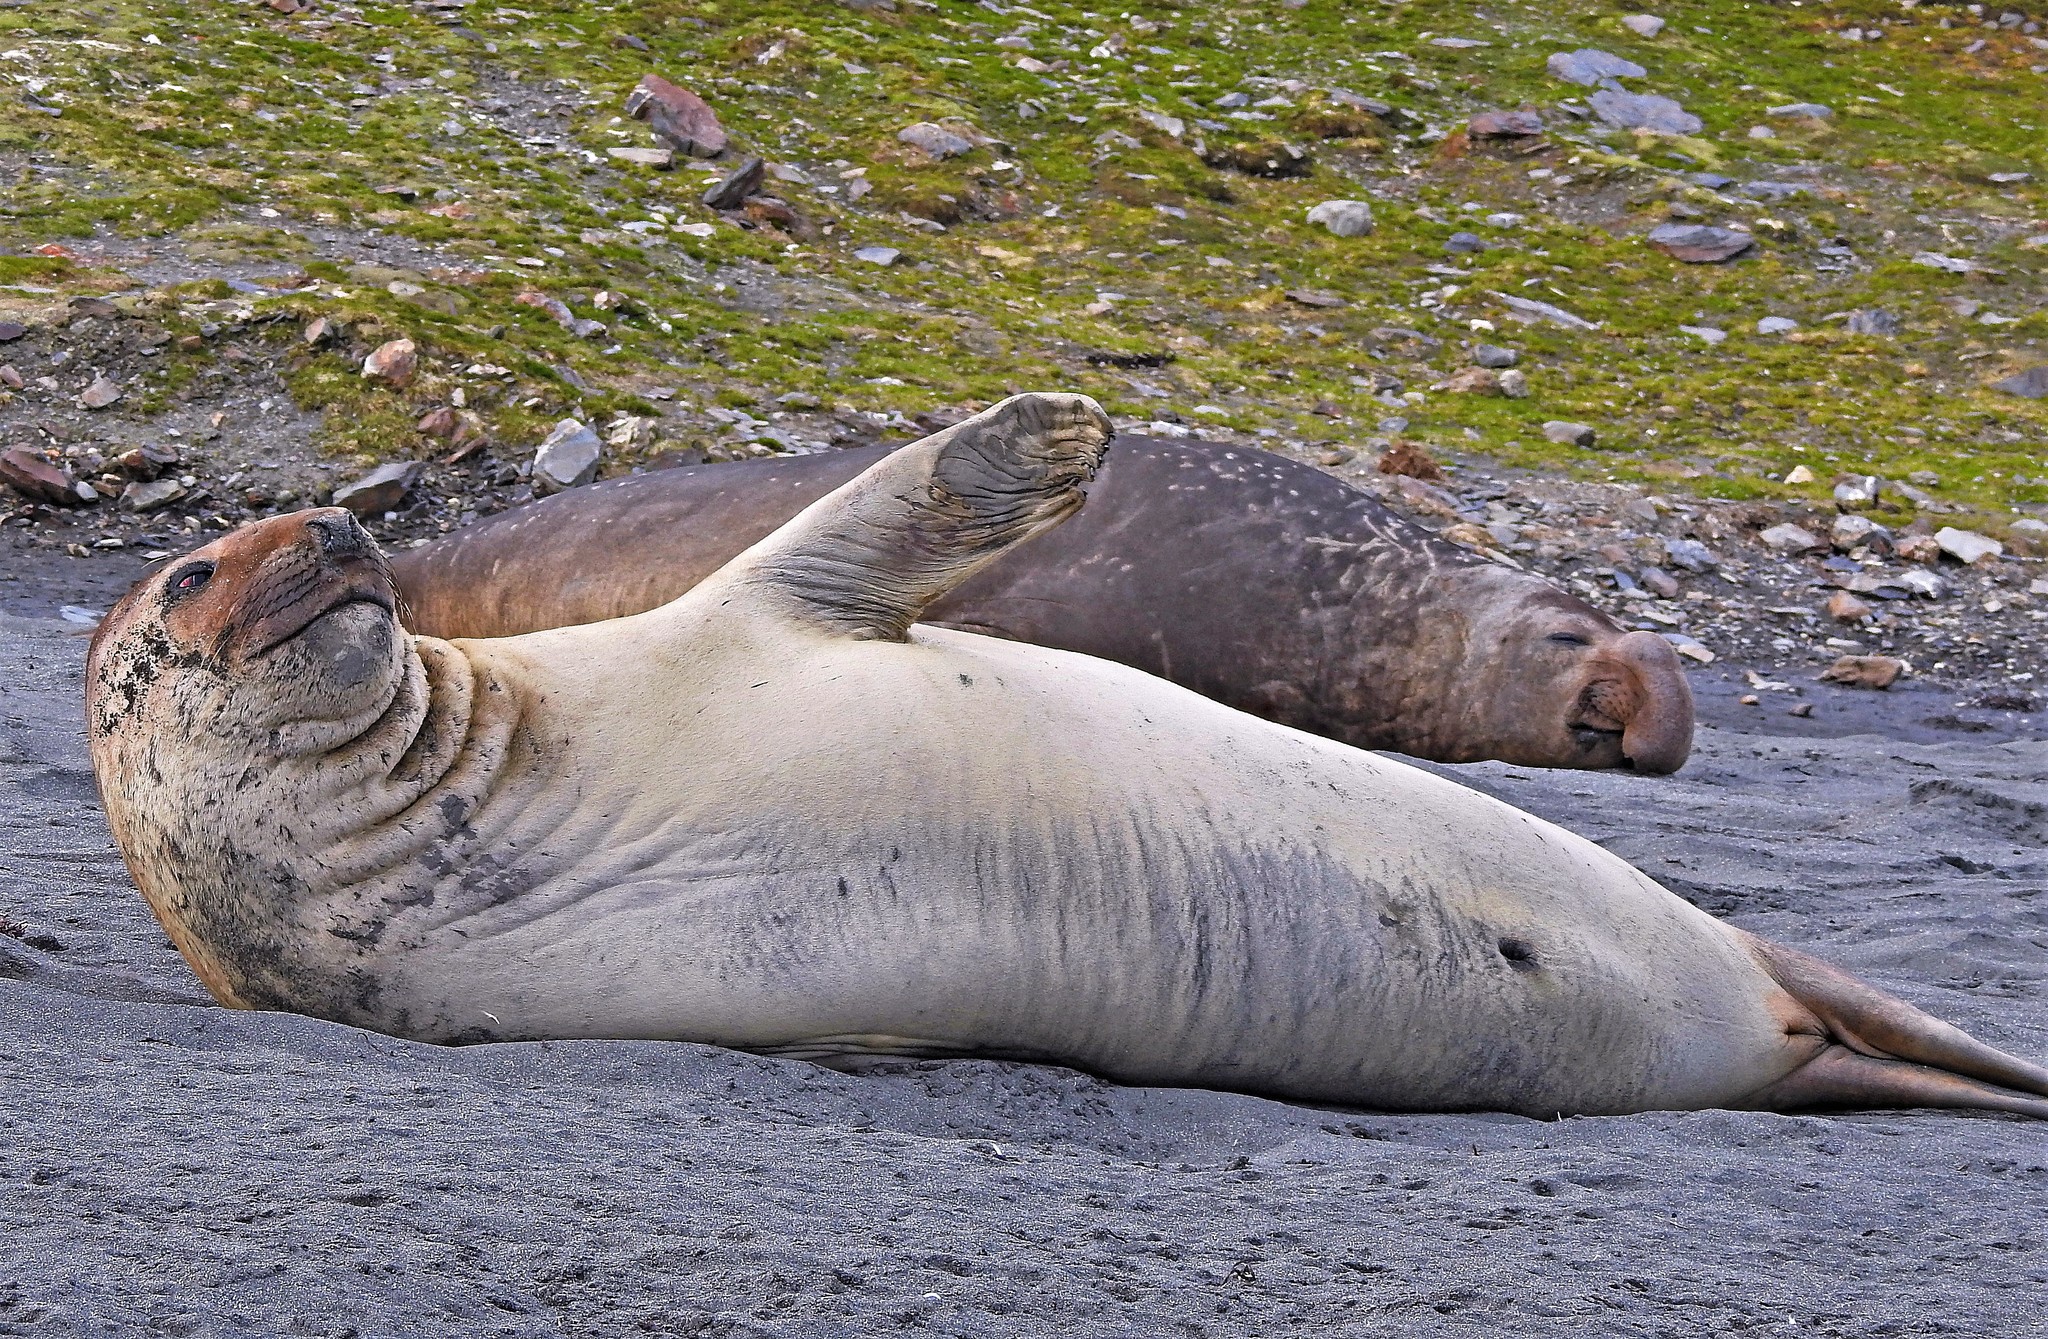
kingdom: Animalia
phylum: Chordata
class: Mammalia
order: Carnivora
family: Phocidae
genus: Mirounga
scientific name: Mirounga leonina
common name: Southern elephant seal
